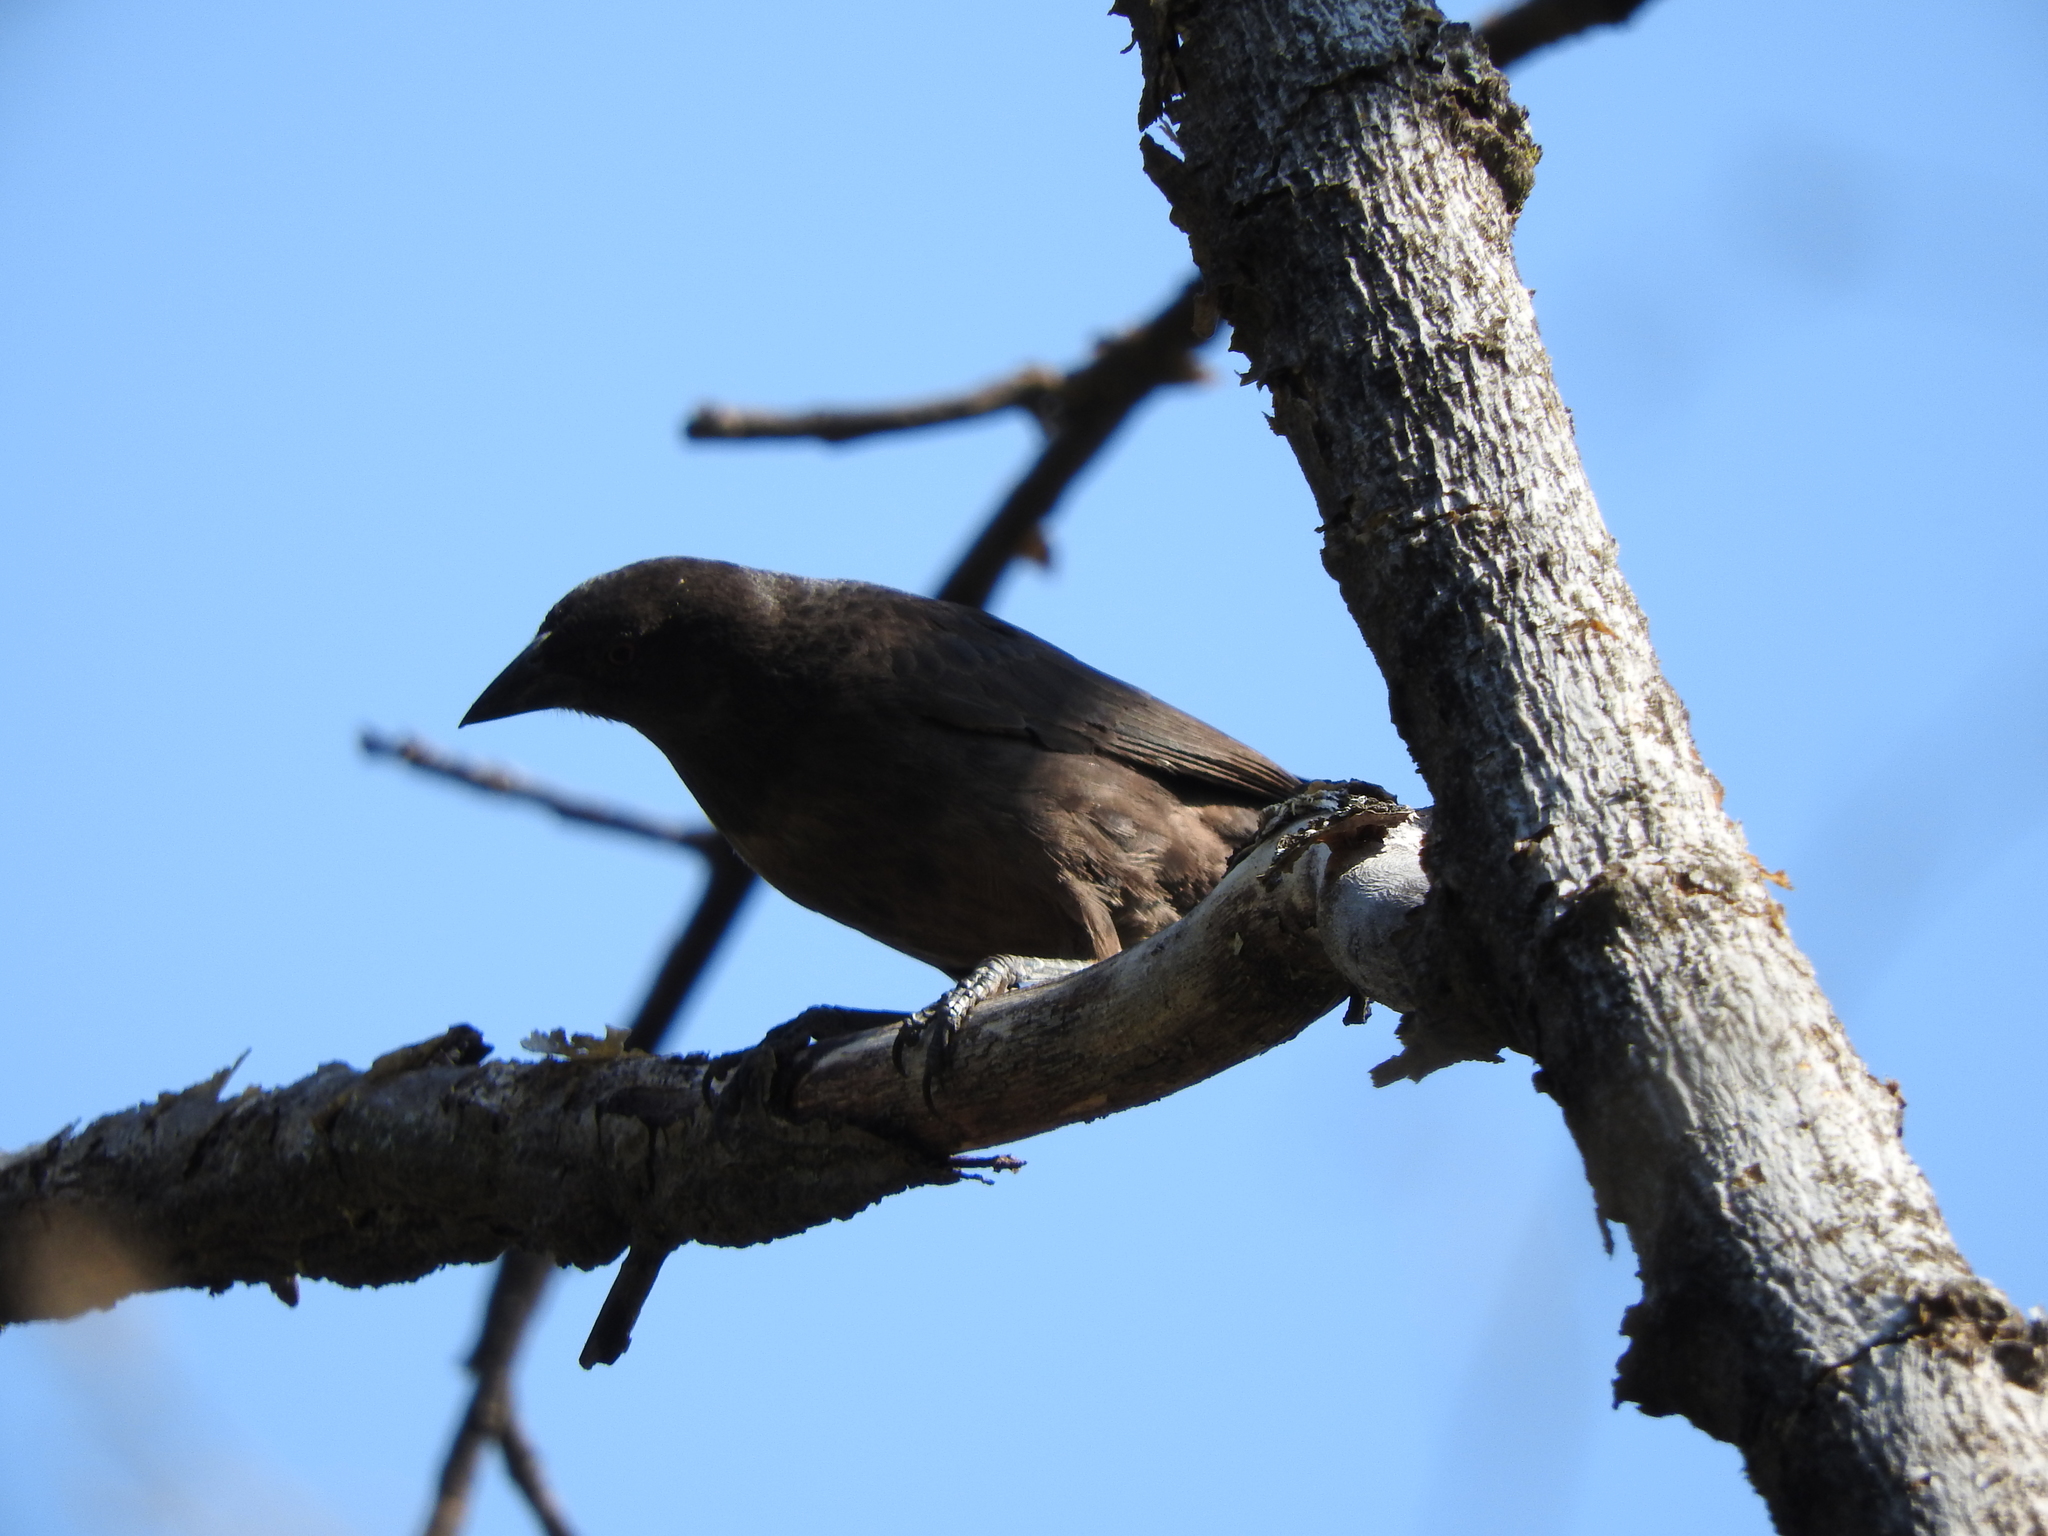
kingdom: Animalia
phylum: Chordata
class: Aves
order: Passeriformes
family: Icteridae
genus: Molothrus
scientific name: Molothrus aeneus
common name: Bronzed cowbird
